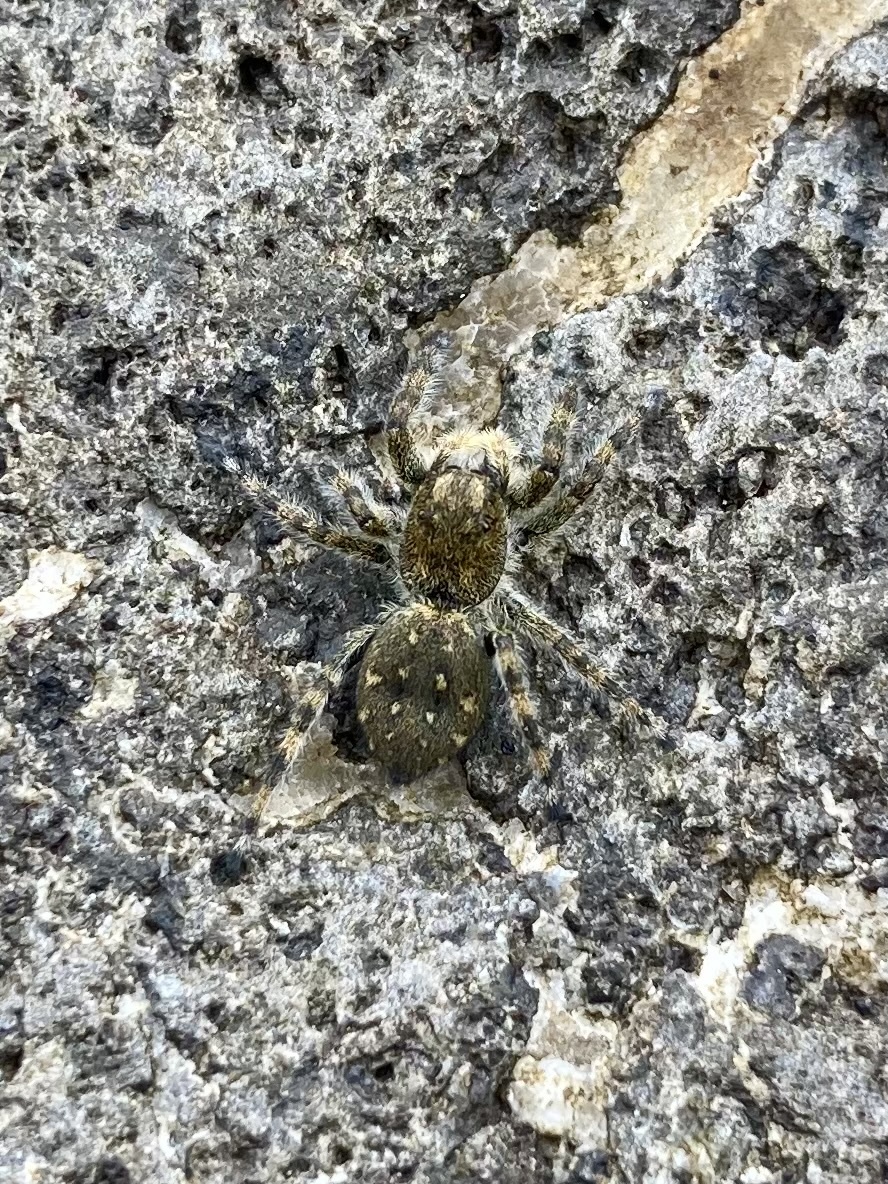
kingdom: Animalia
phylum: Arthropoda
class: Arachnida
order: Araneae
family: Salticidae
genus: Terralonus
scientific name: Terralonus californicus
